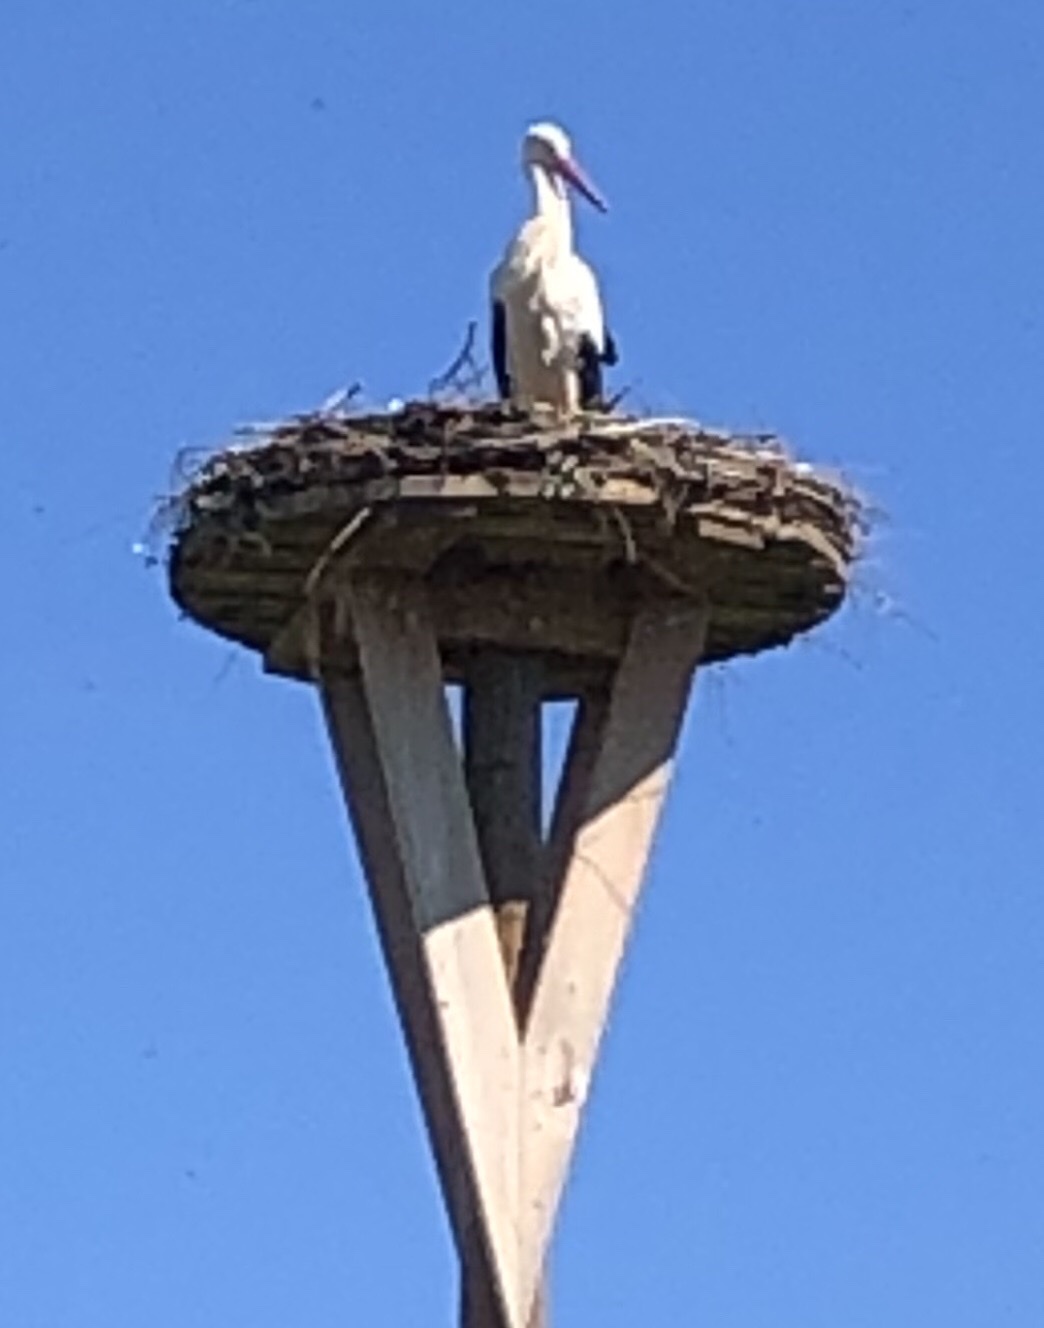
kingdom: Animalia
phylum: Chordata
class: Aves
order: Ciconiiformes
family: Ciconiidae
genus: Ciconia
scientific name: Ciconia ciconia
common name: White stork
